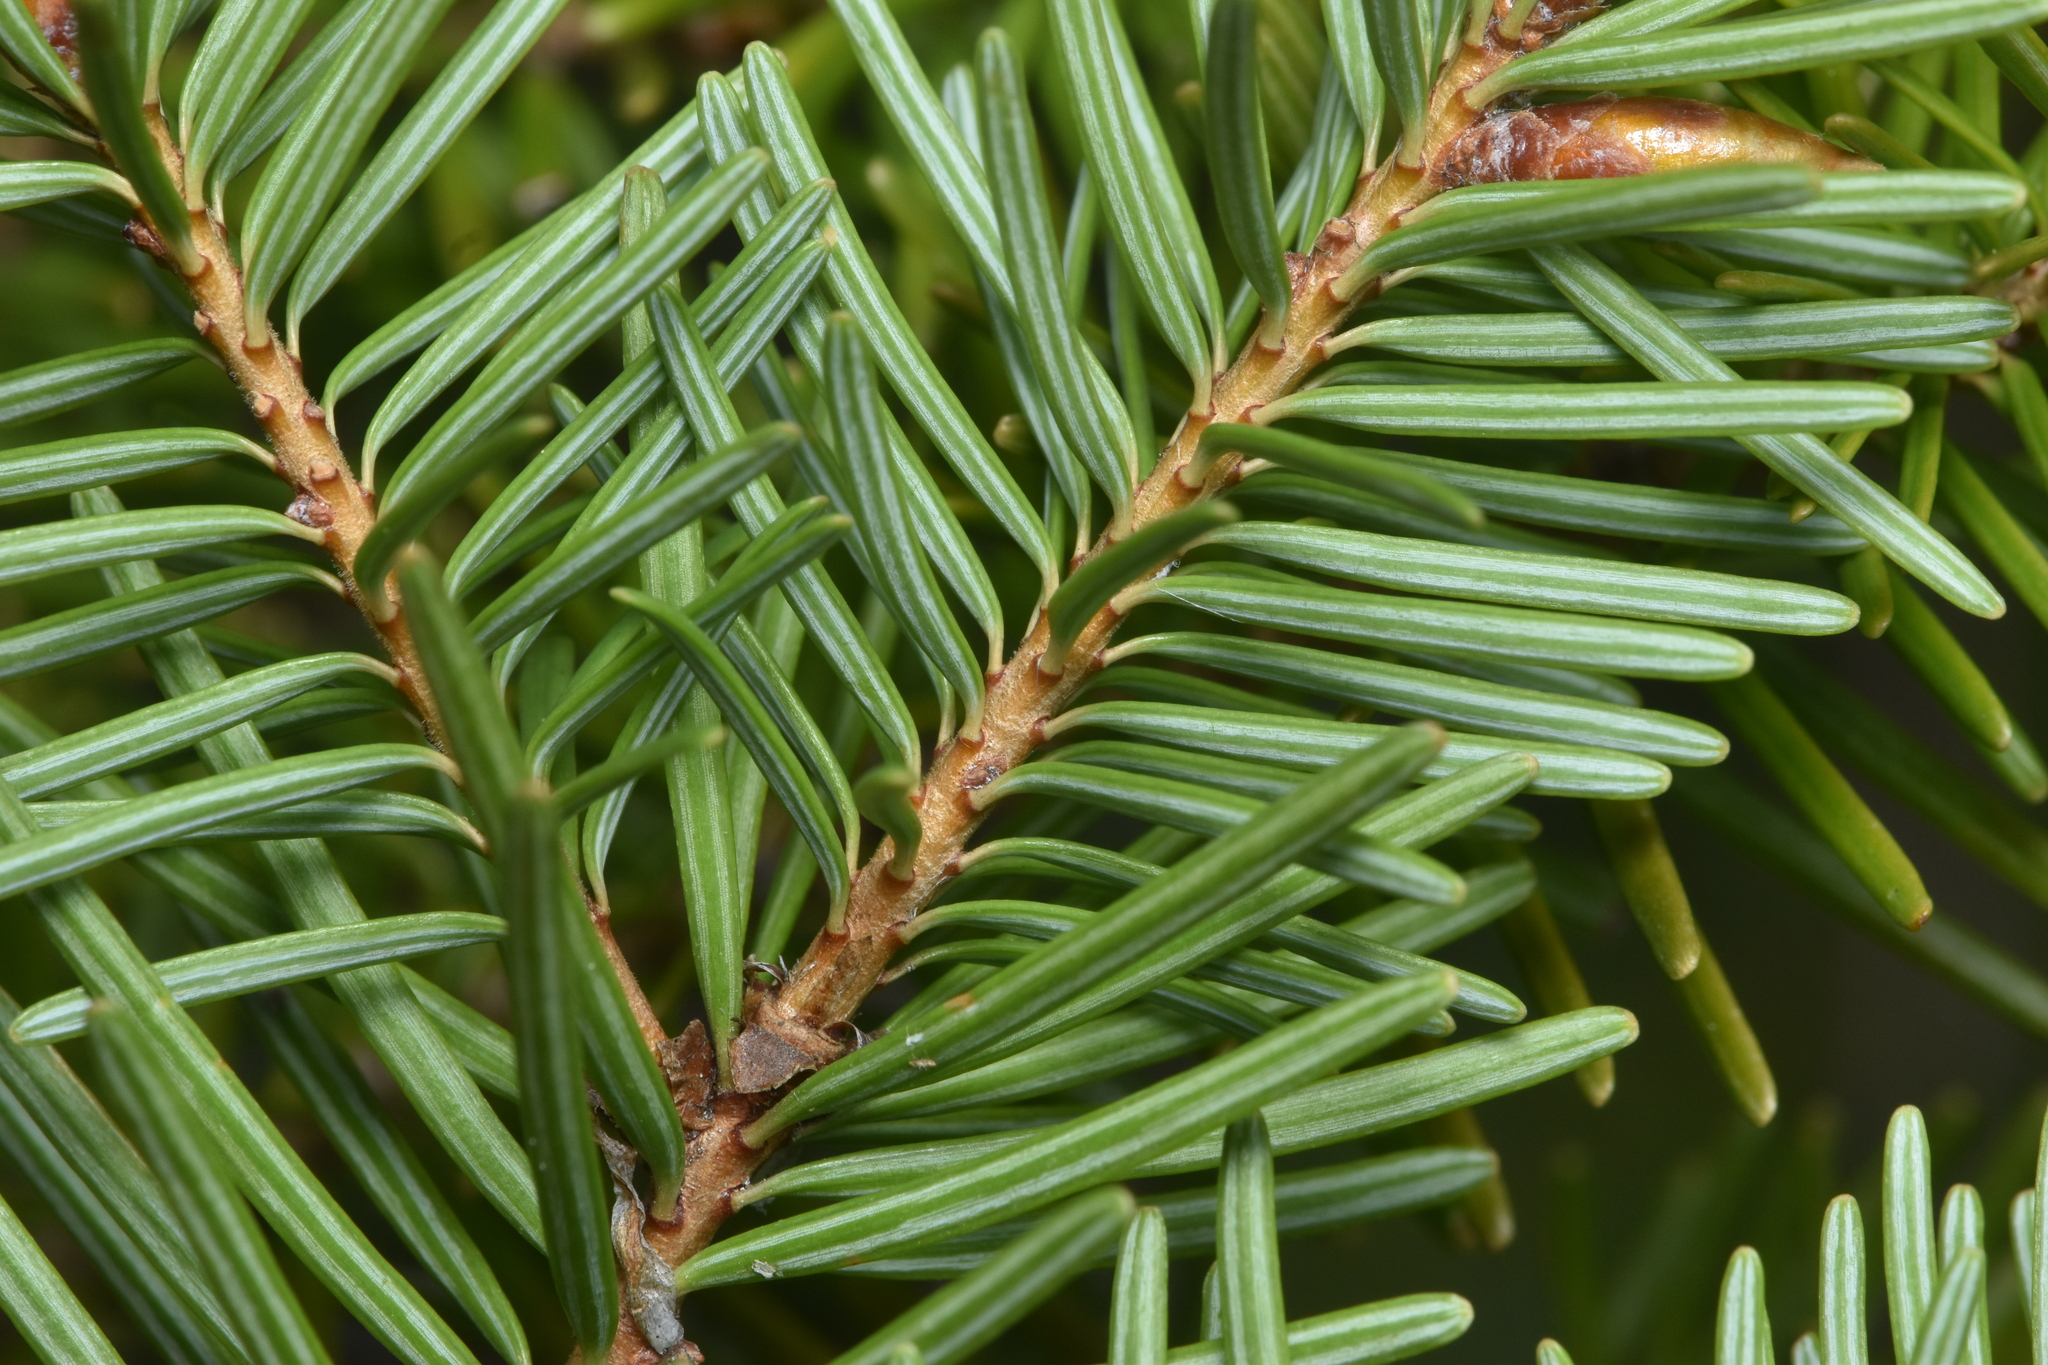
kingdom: Plantae
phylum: Tracheophyta
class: Pinopsida
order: Pinales
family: Pinaceae
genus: Pseudotsuga
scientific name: Pseudotsuga menziesii
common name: Douglas fir
